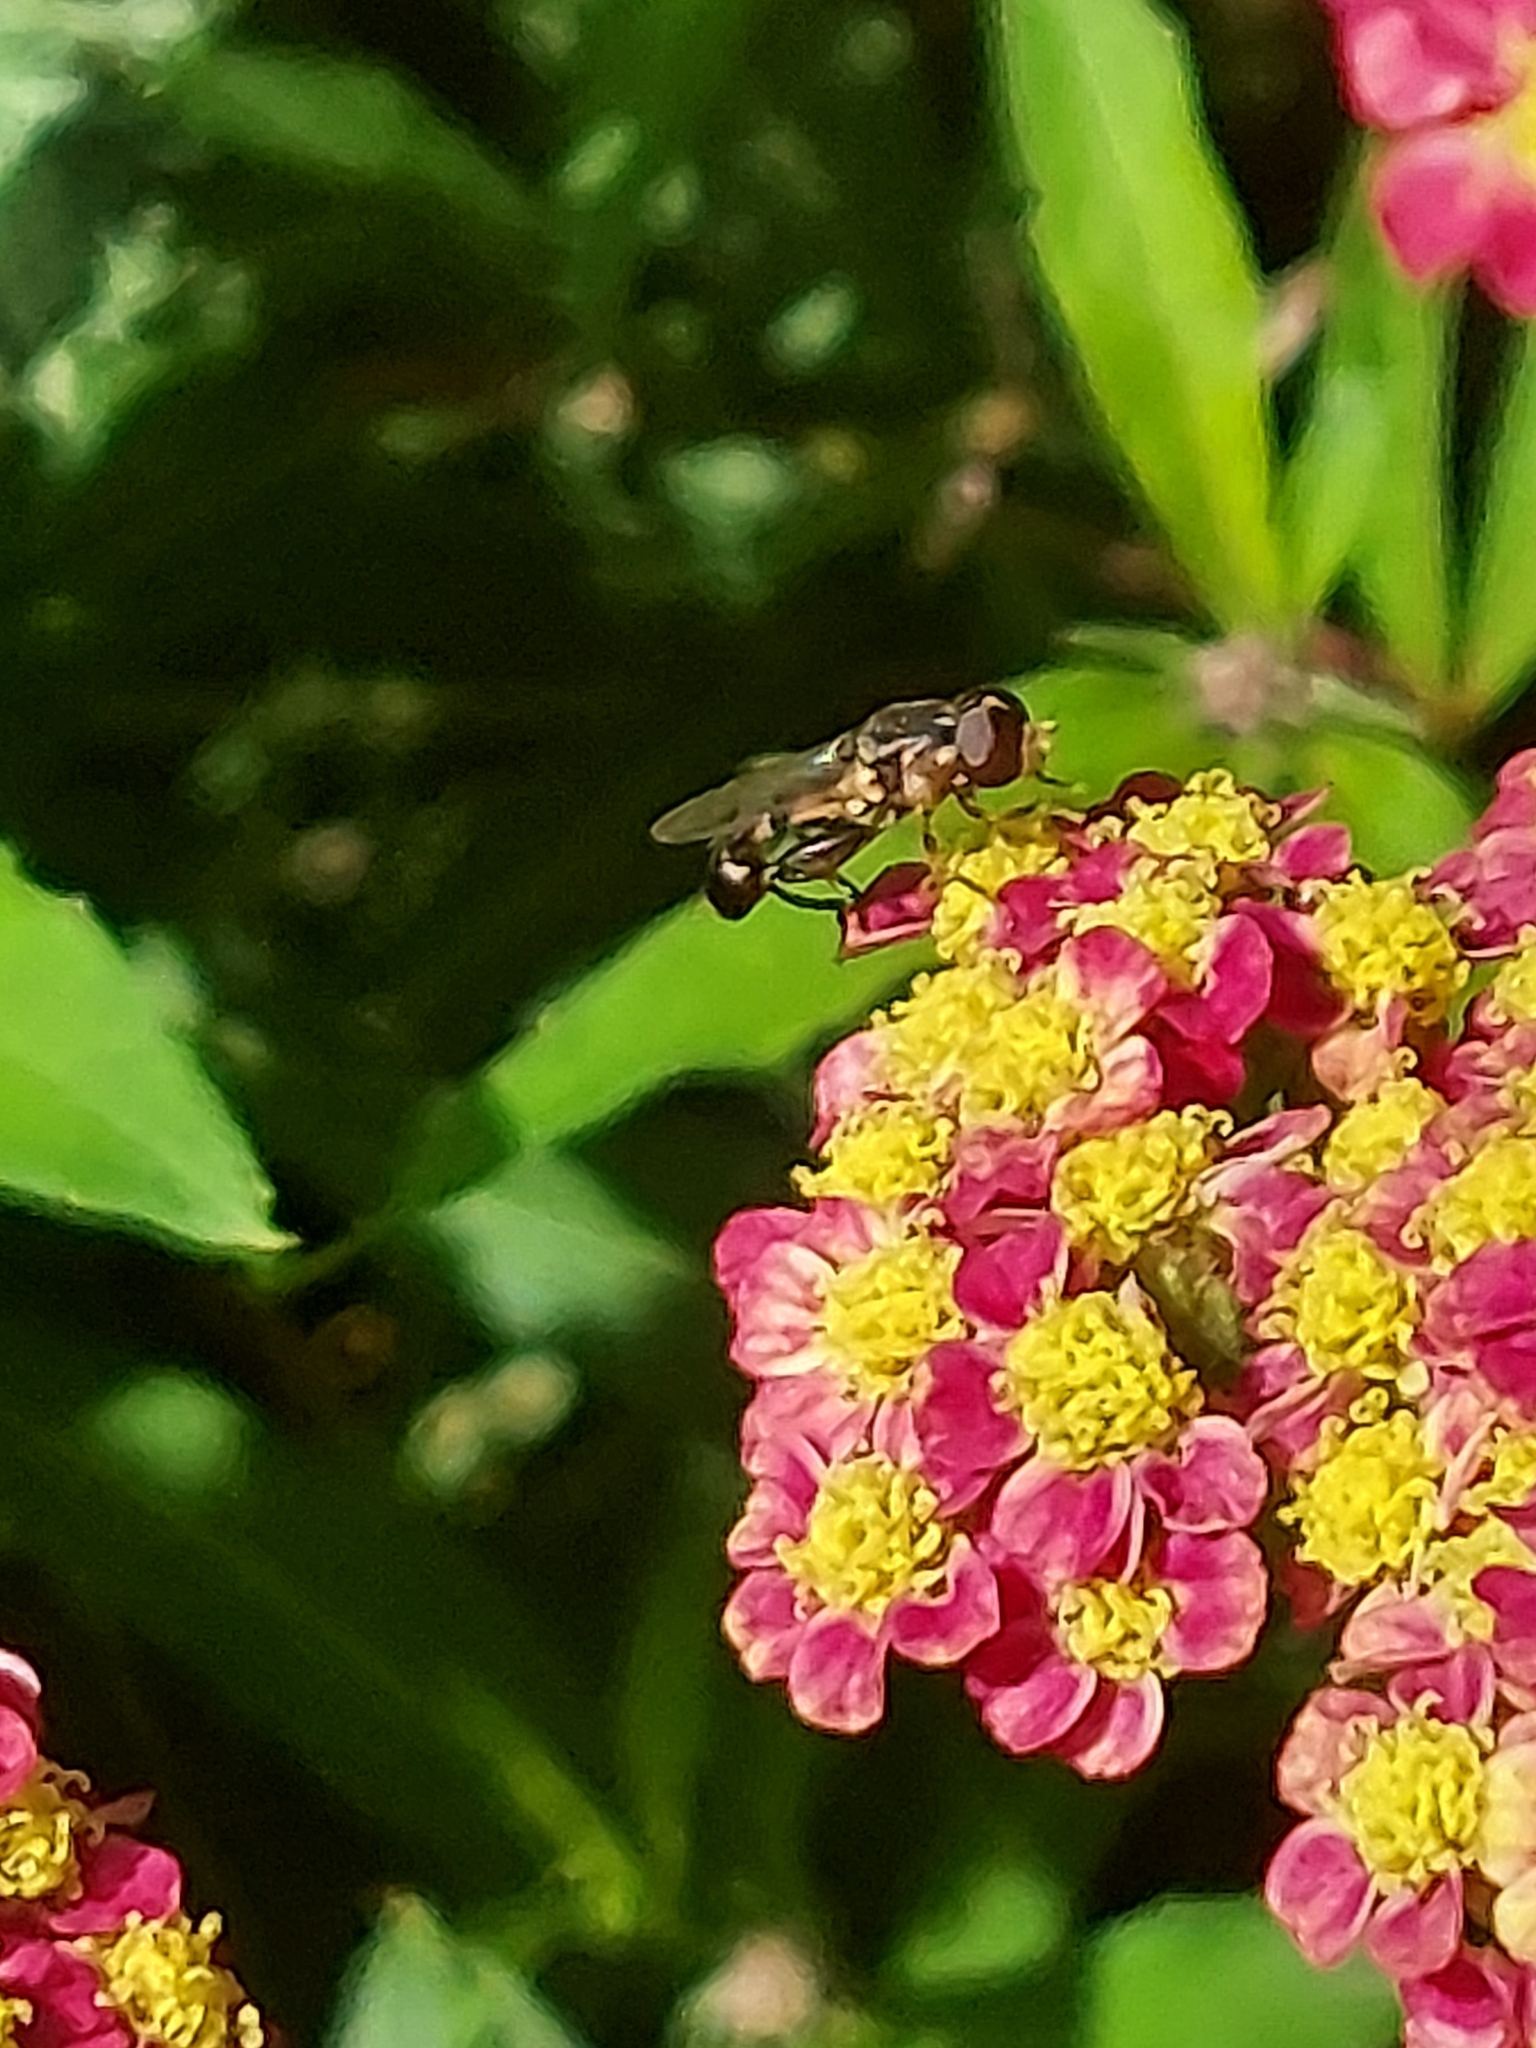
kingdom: Animalia
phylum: Arthropoda
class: Insecta
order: Diptera
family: Syrphidae
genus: Syritta
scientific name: Syritta pipiens
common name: Hover fly
